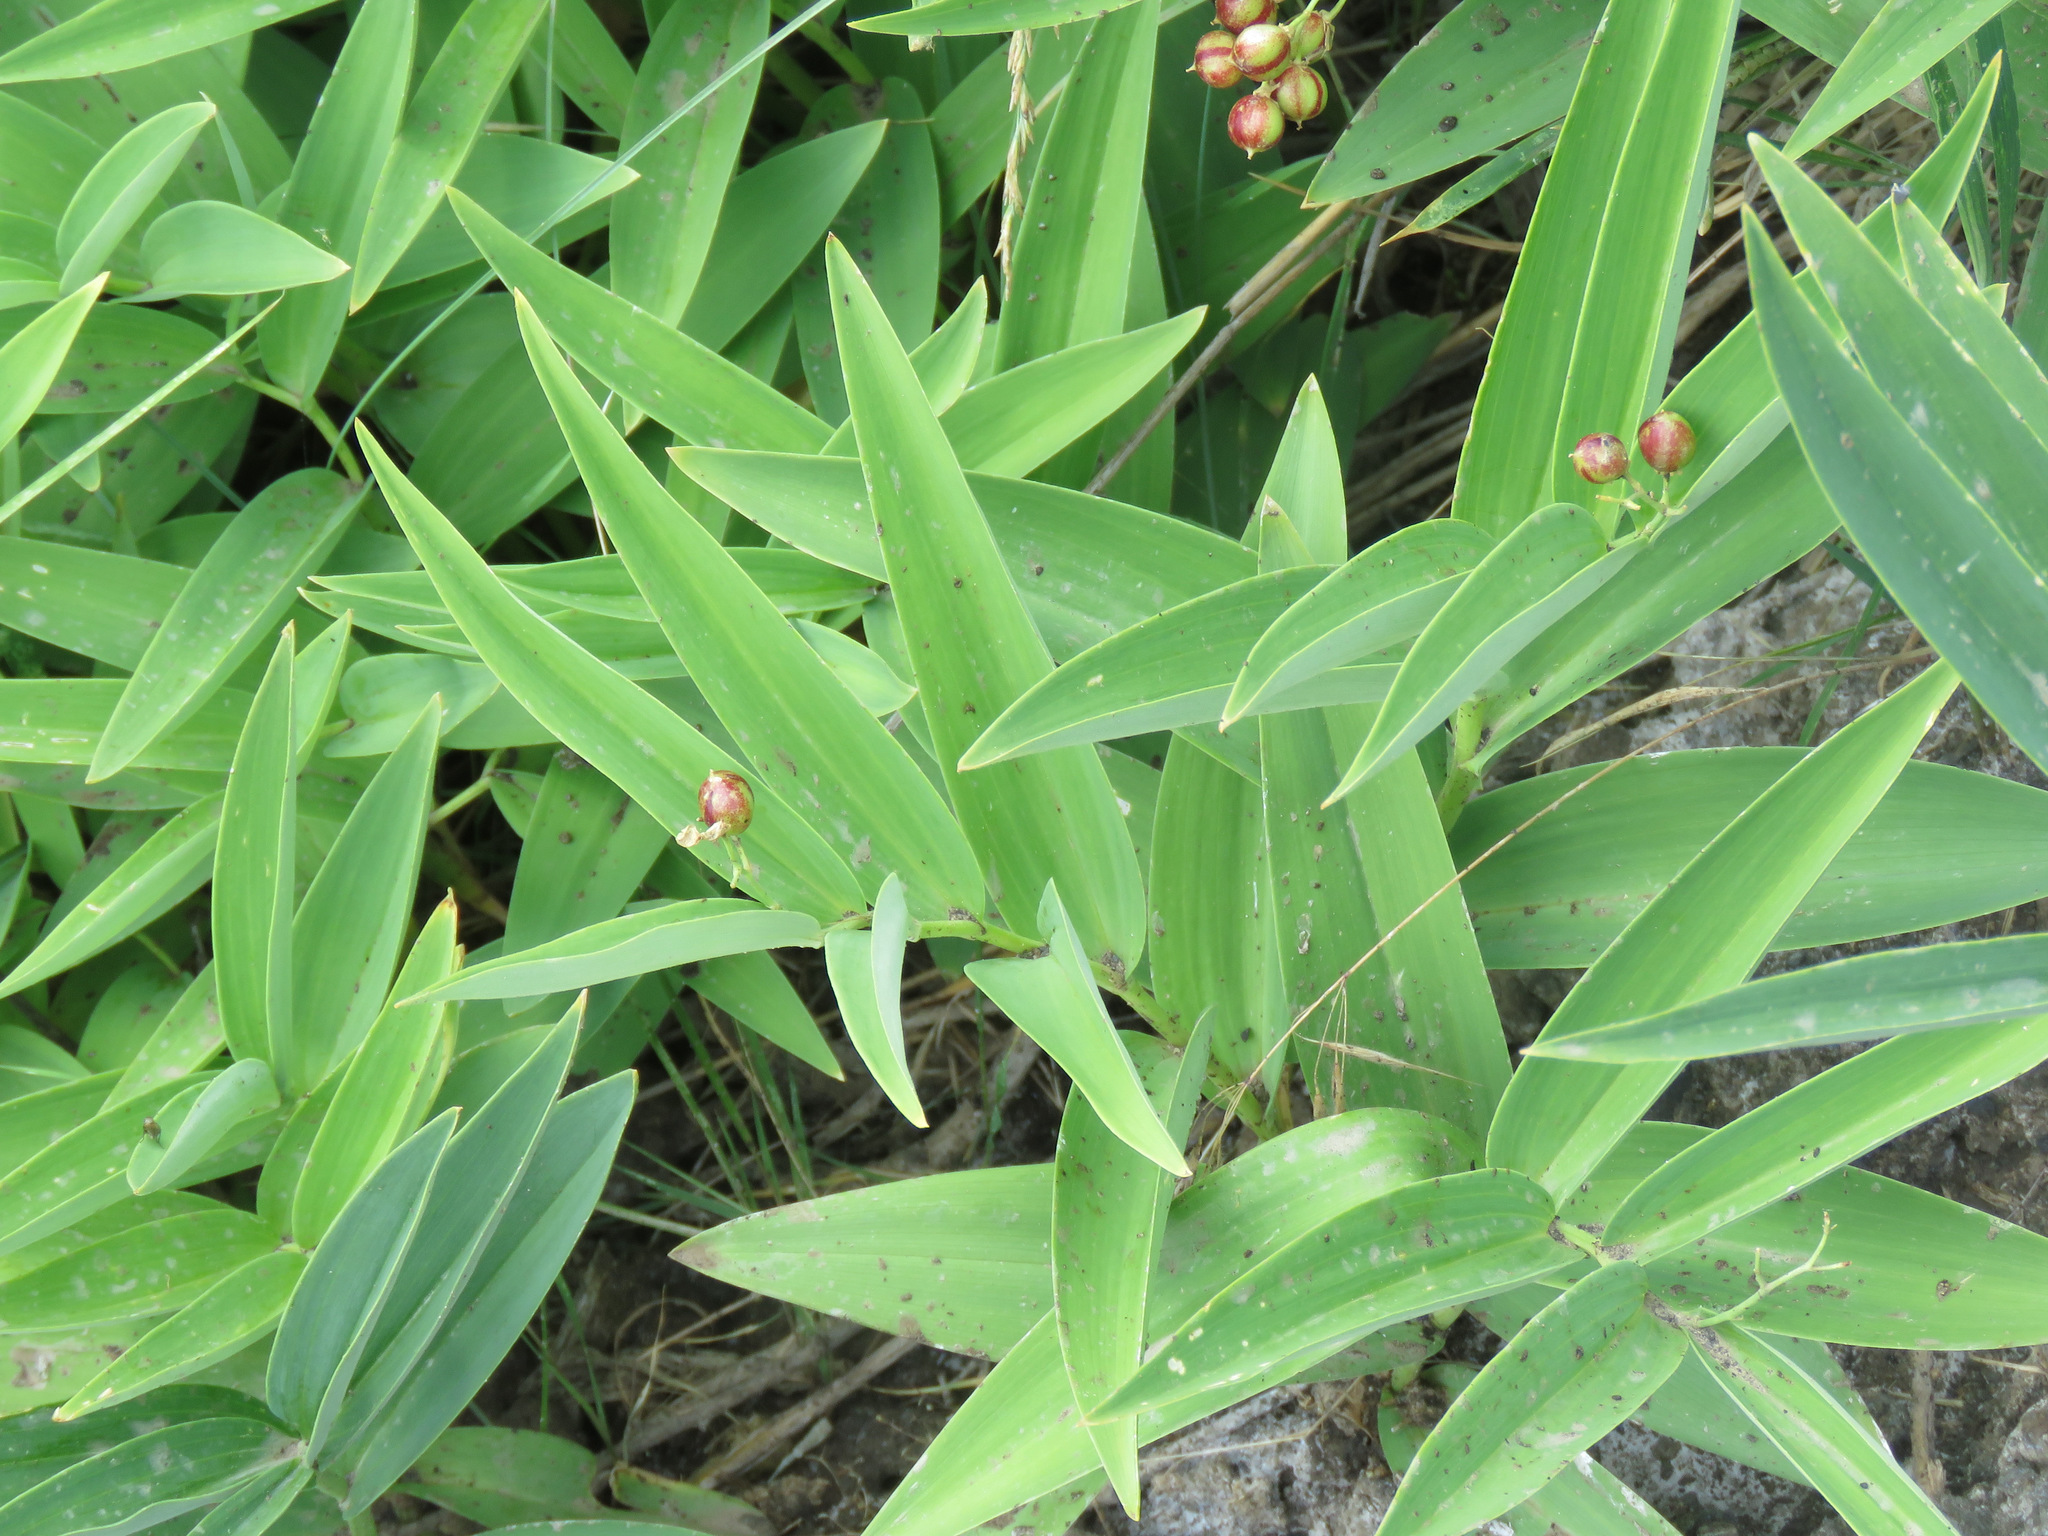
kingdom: Plantae
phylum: Tracheophyta
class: Liliopsida
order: Asparagales
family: Asparagaceae
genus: Maianthemum
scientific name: Maianthemum stellatum
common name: Little false solomon's seal
